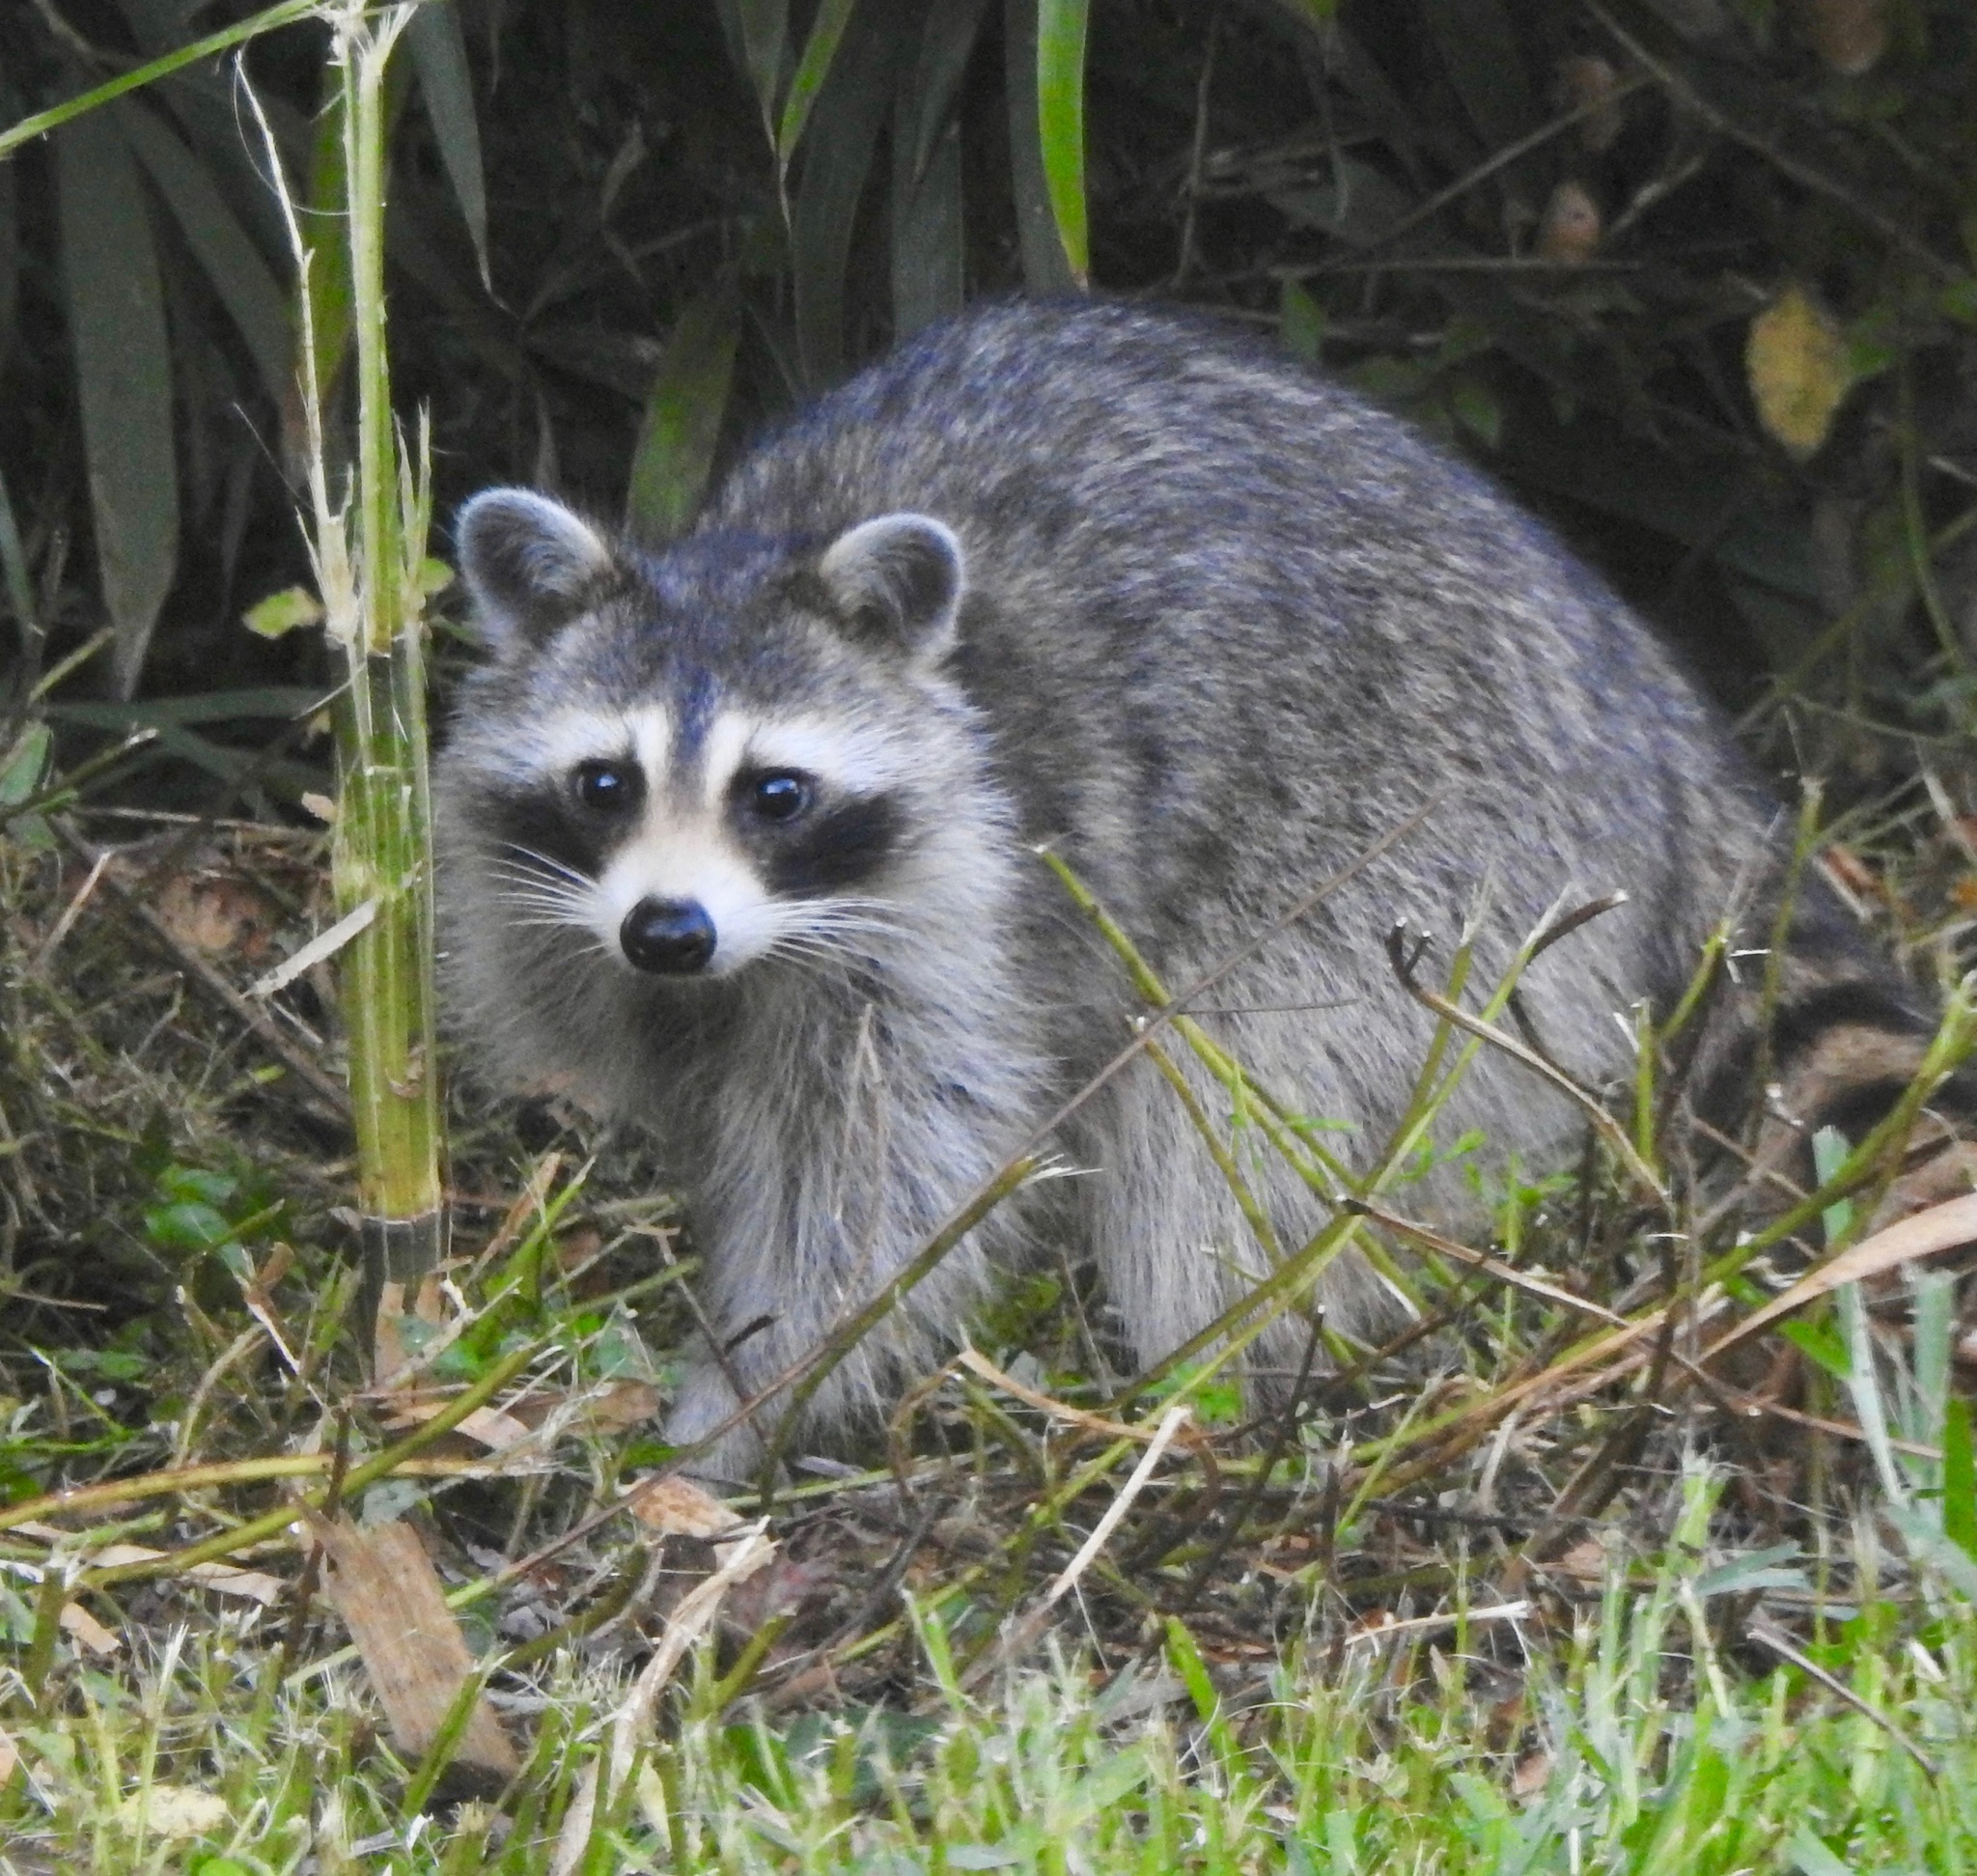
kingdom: Animalia
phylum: Chordata
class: Mammalia
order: Carnivora
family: Procyonidae
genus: Procyon
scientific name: Procyon lotor
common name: Raccoon
